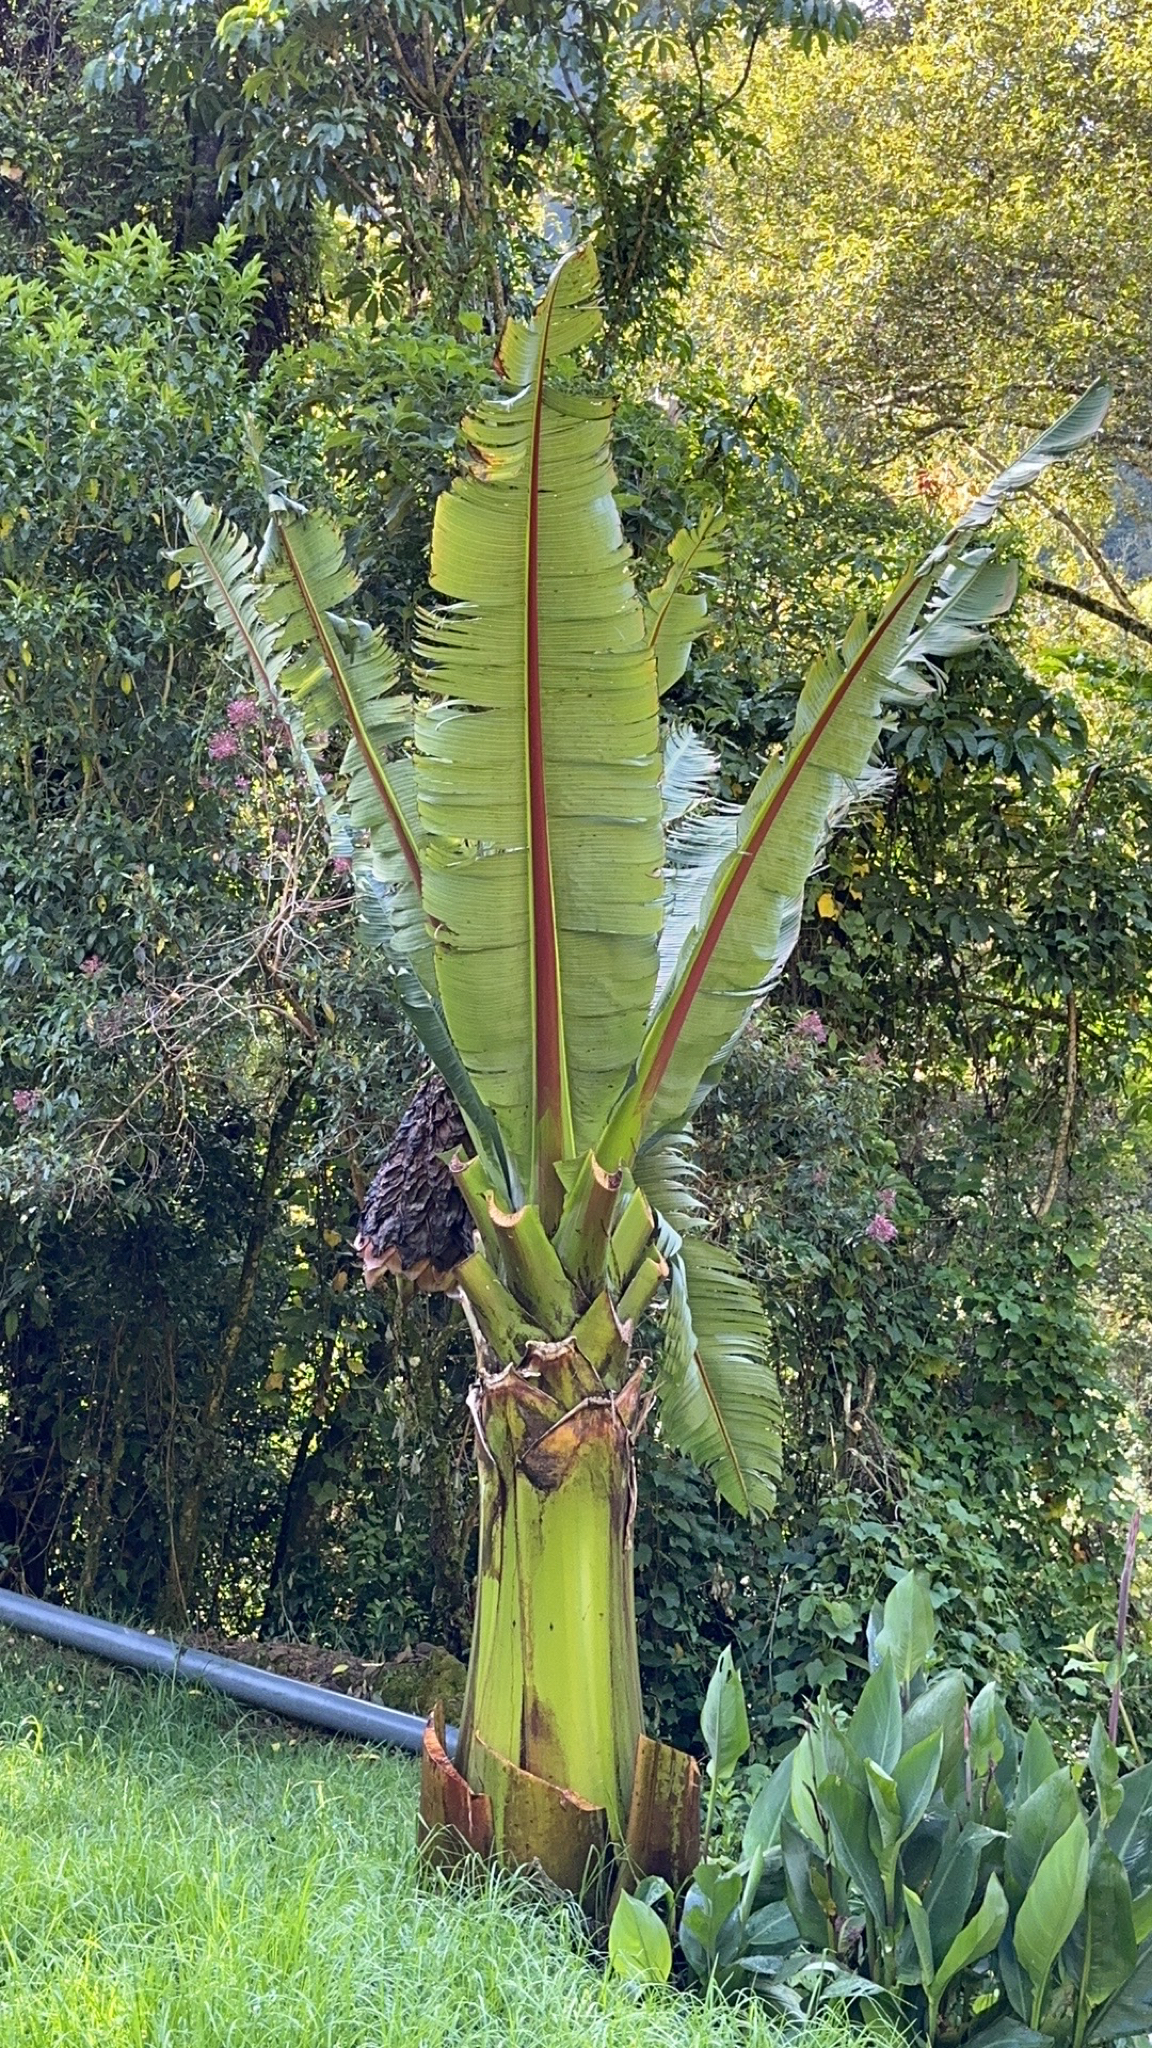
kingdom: Plantae
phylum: Tracheophyta
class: Liliopsida
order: Zingiberales
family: Musaceae
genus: Ensete
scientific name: Ensete ventricosum
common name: Abyssinian banana
